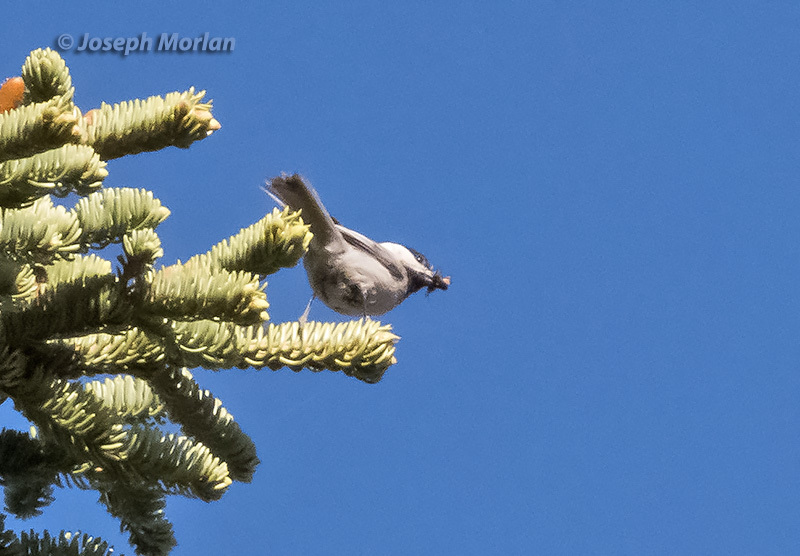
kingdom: Animalia
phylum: Chordata
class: Aves
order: Passeriformes
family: Paridae
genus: Poecile
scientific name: Poecile gambeli
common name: Mountain chickadee
